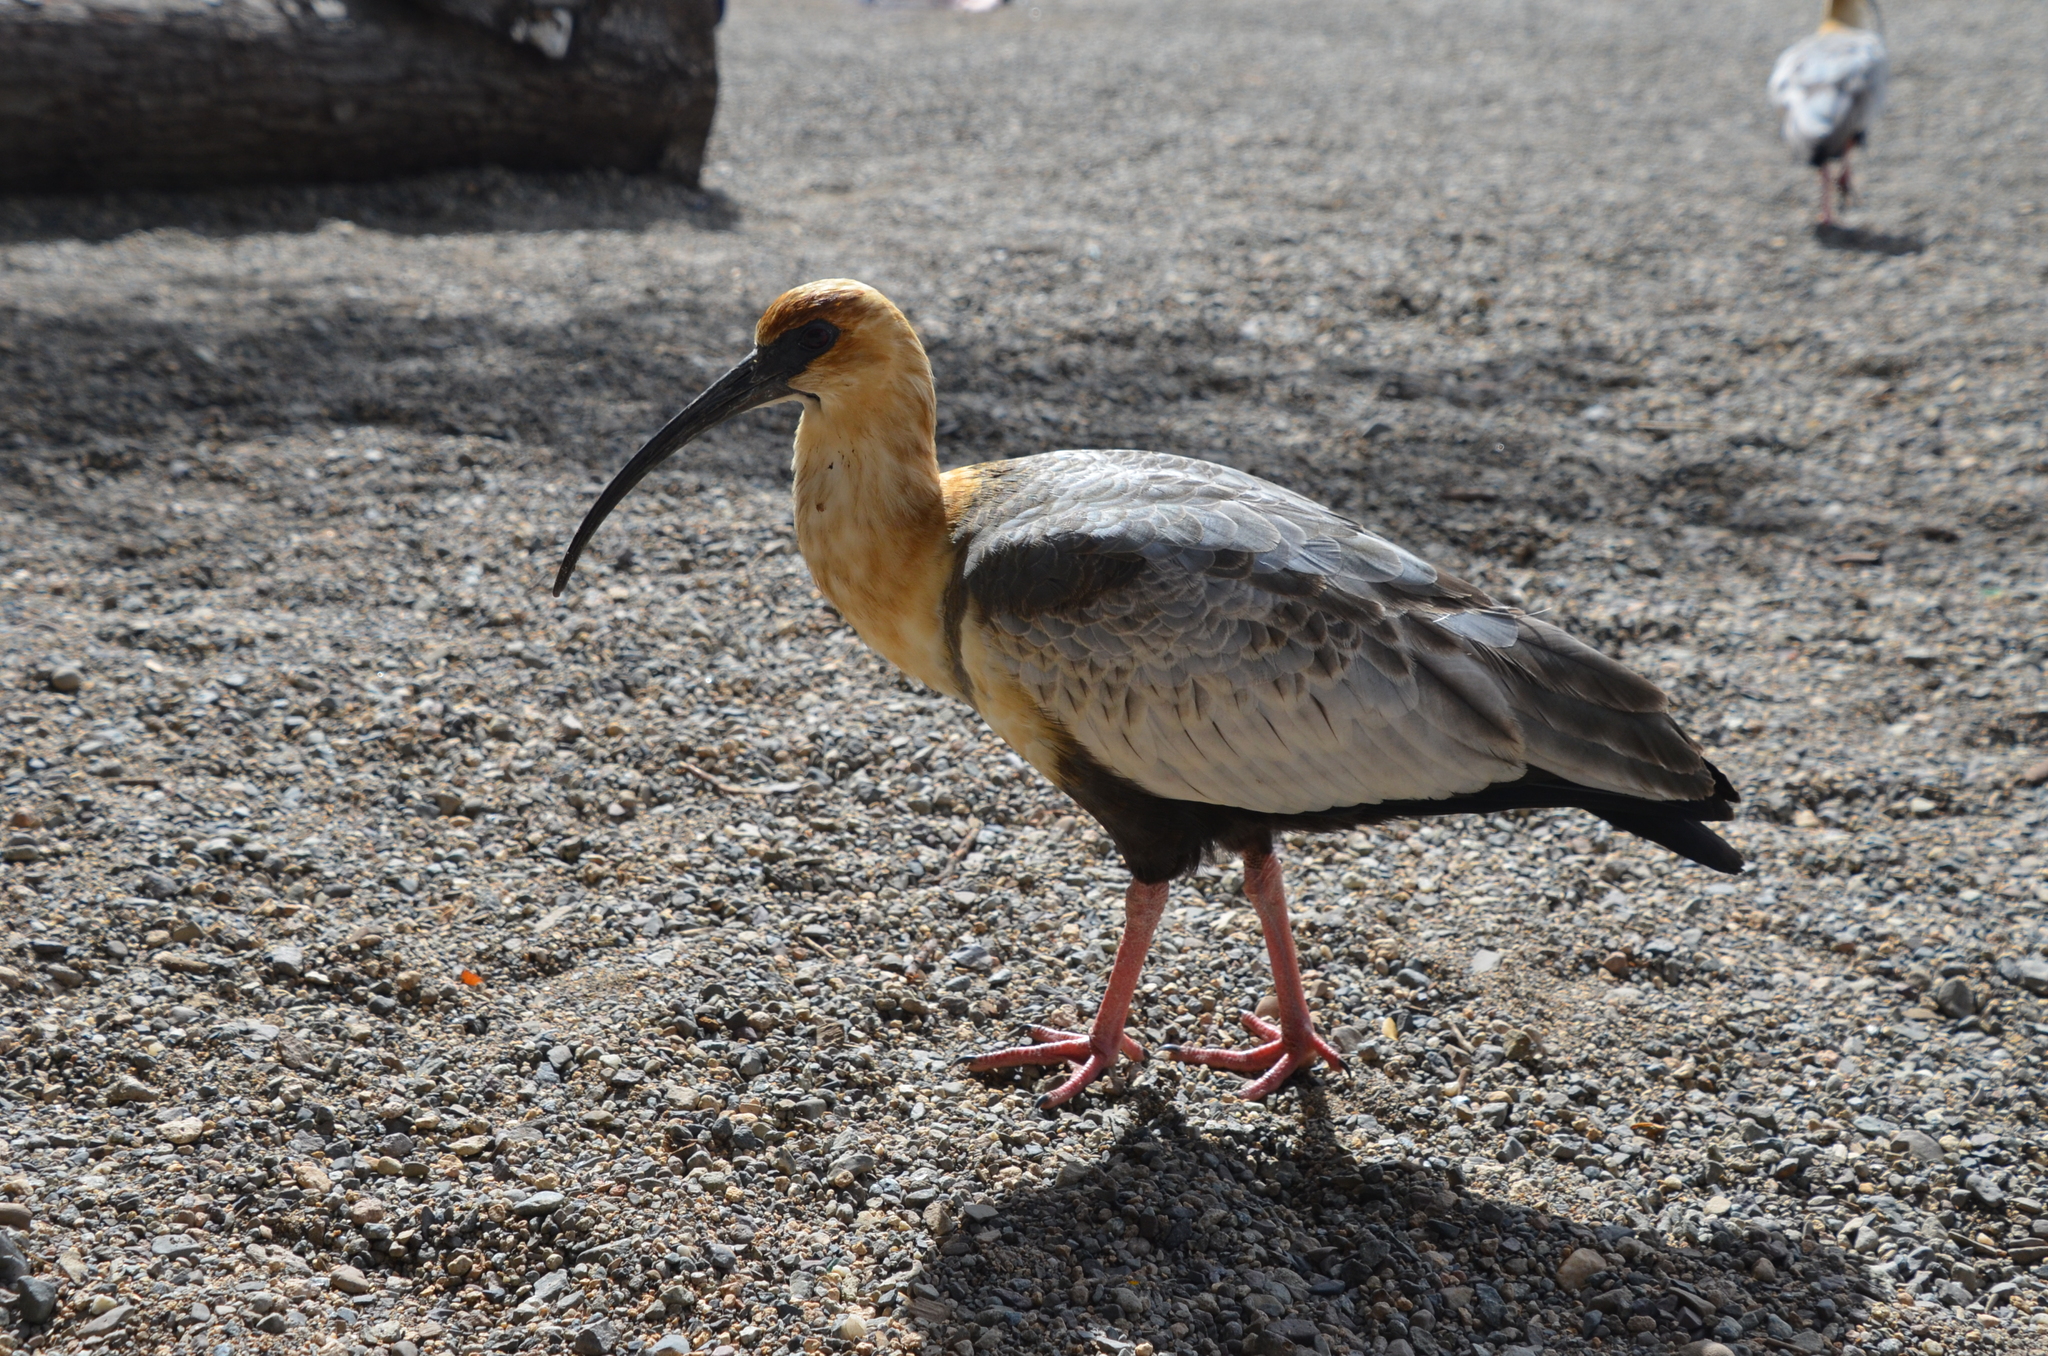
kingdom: Animalia
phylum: Chordata
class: Aves
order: Pelecaniformes
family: Threskiornithidae
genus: Theristicus
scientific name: Theristicus melanopis
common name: Black-faced ibis
